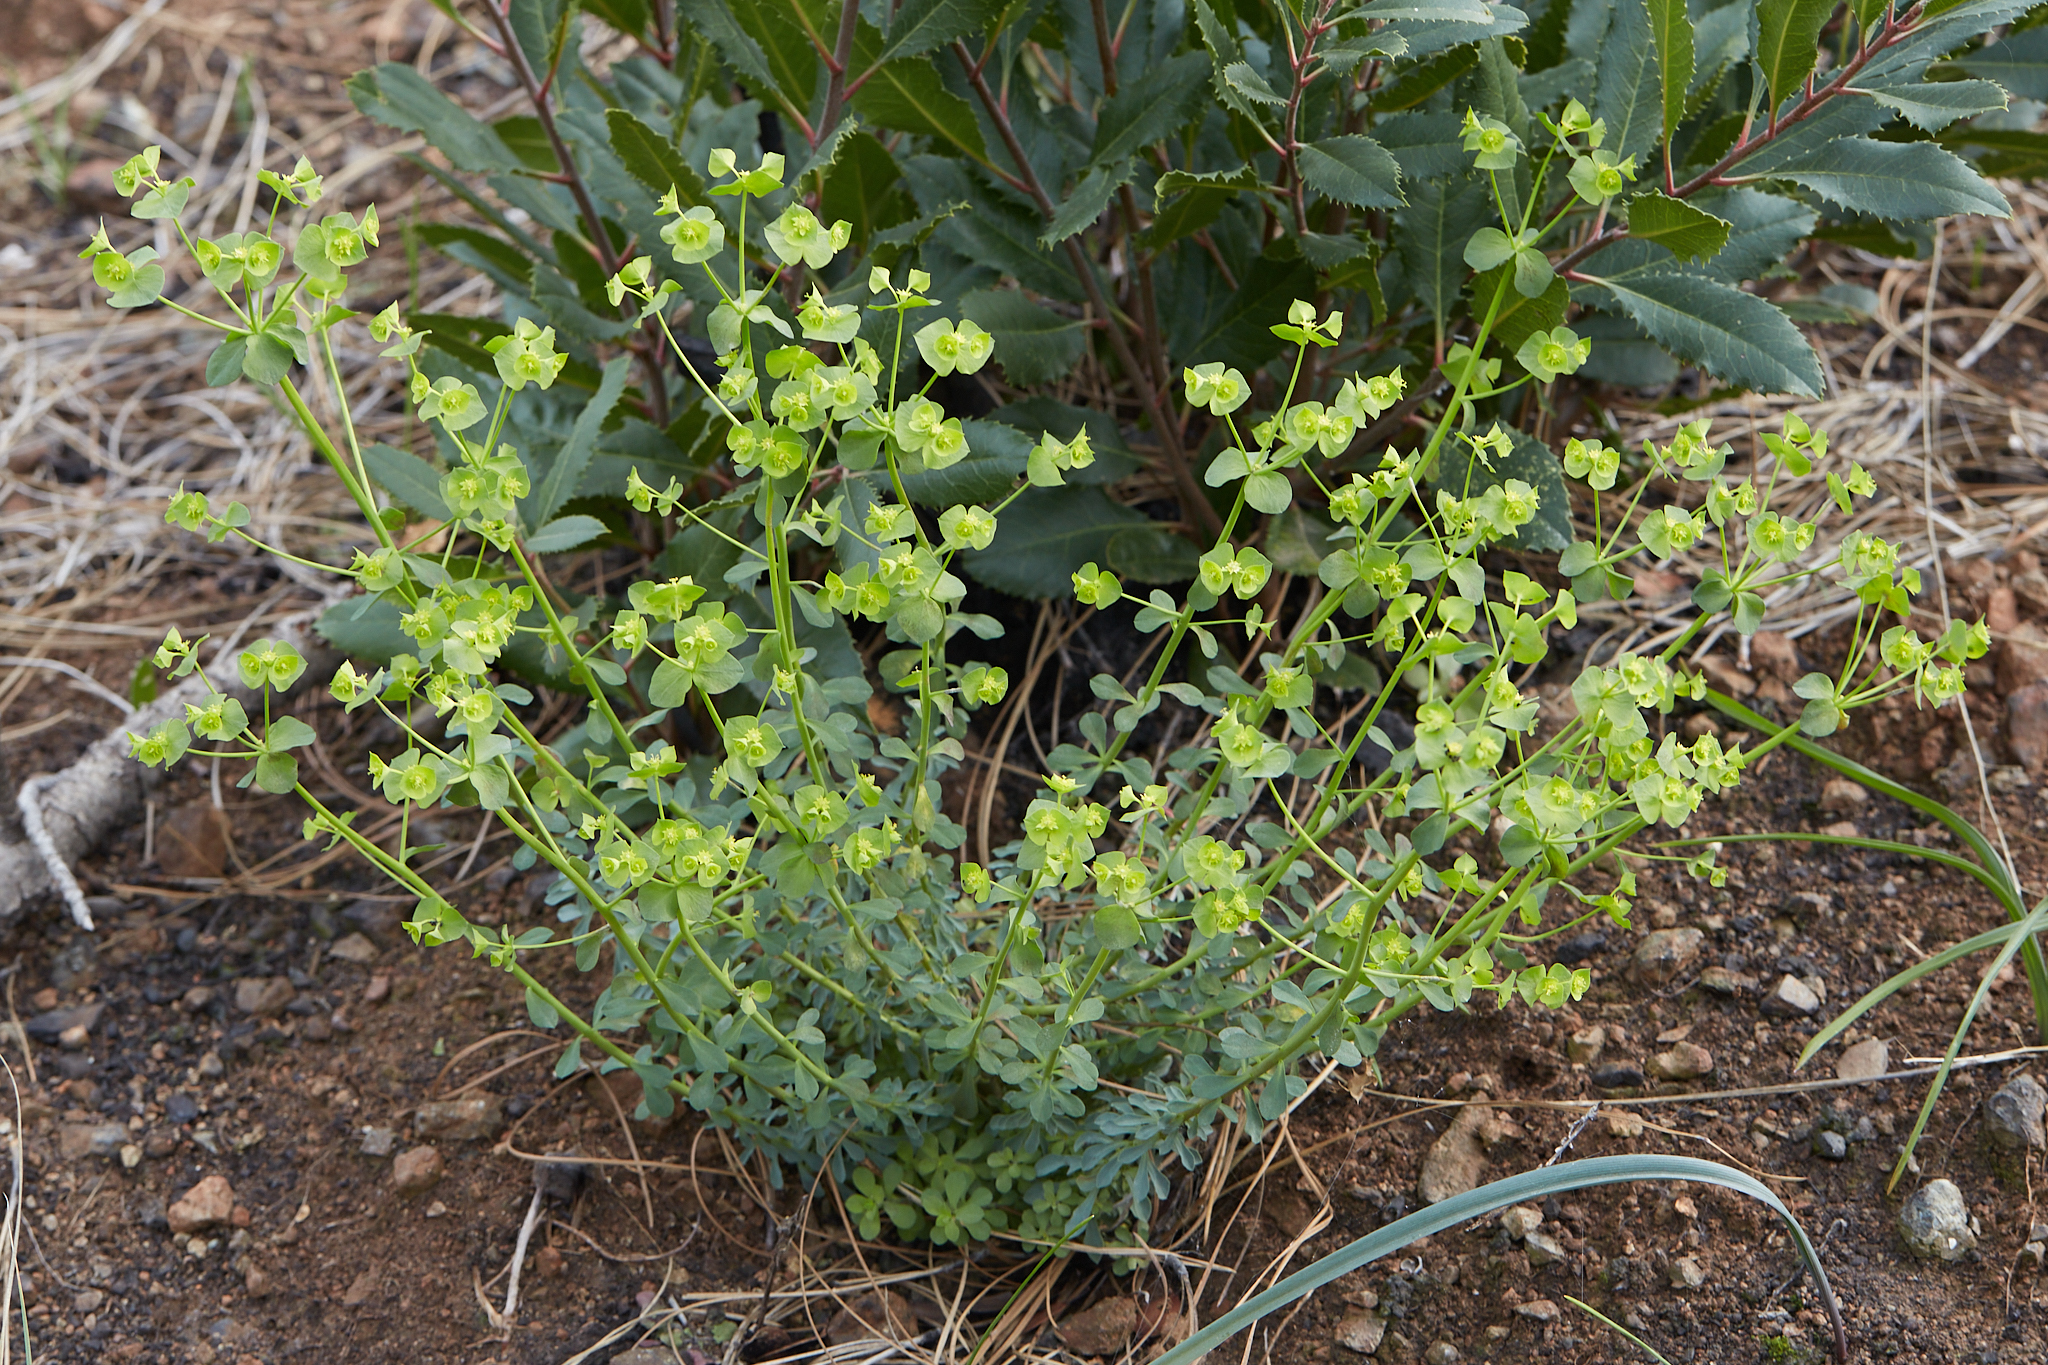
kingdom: Plantae
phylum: Tracheophyta
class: Magnoliopsida
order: Malpighiales
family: Euphorbiaceae
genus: Euphorbia
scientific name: Euphorbia crenulata
